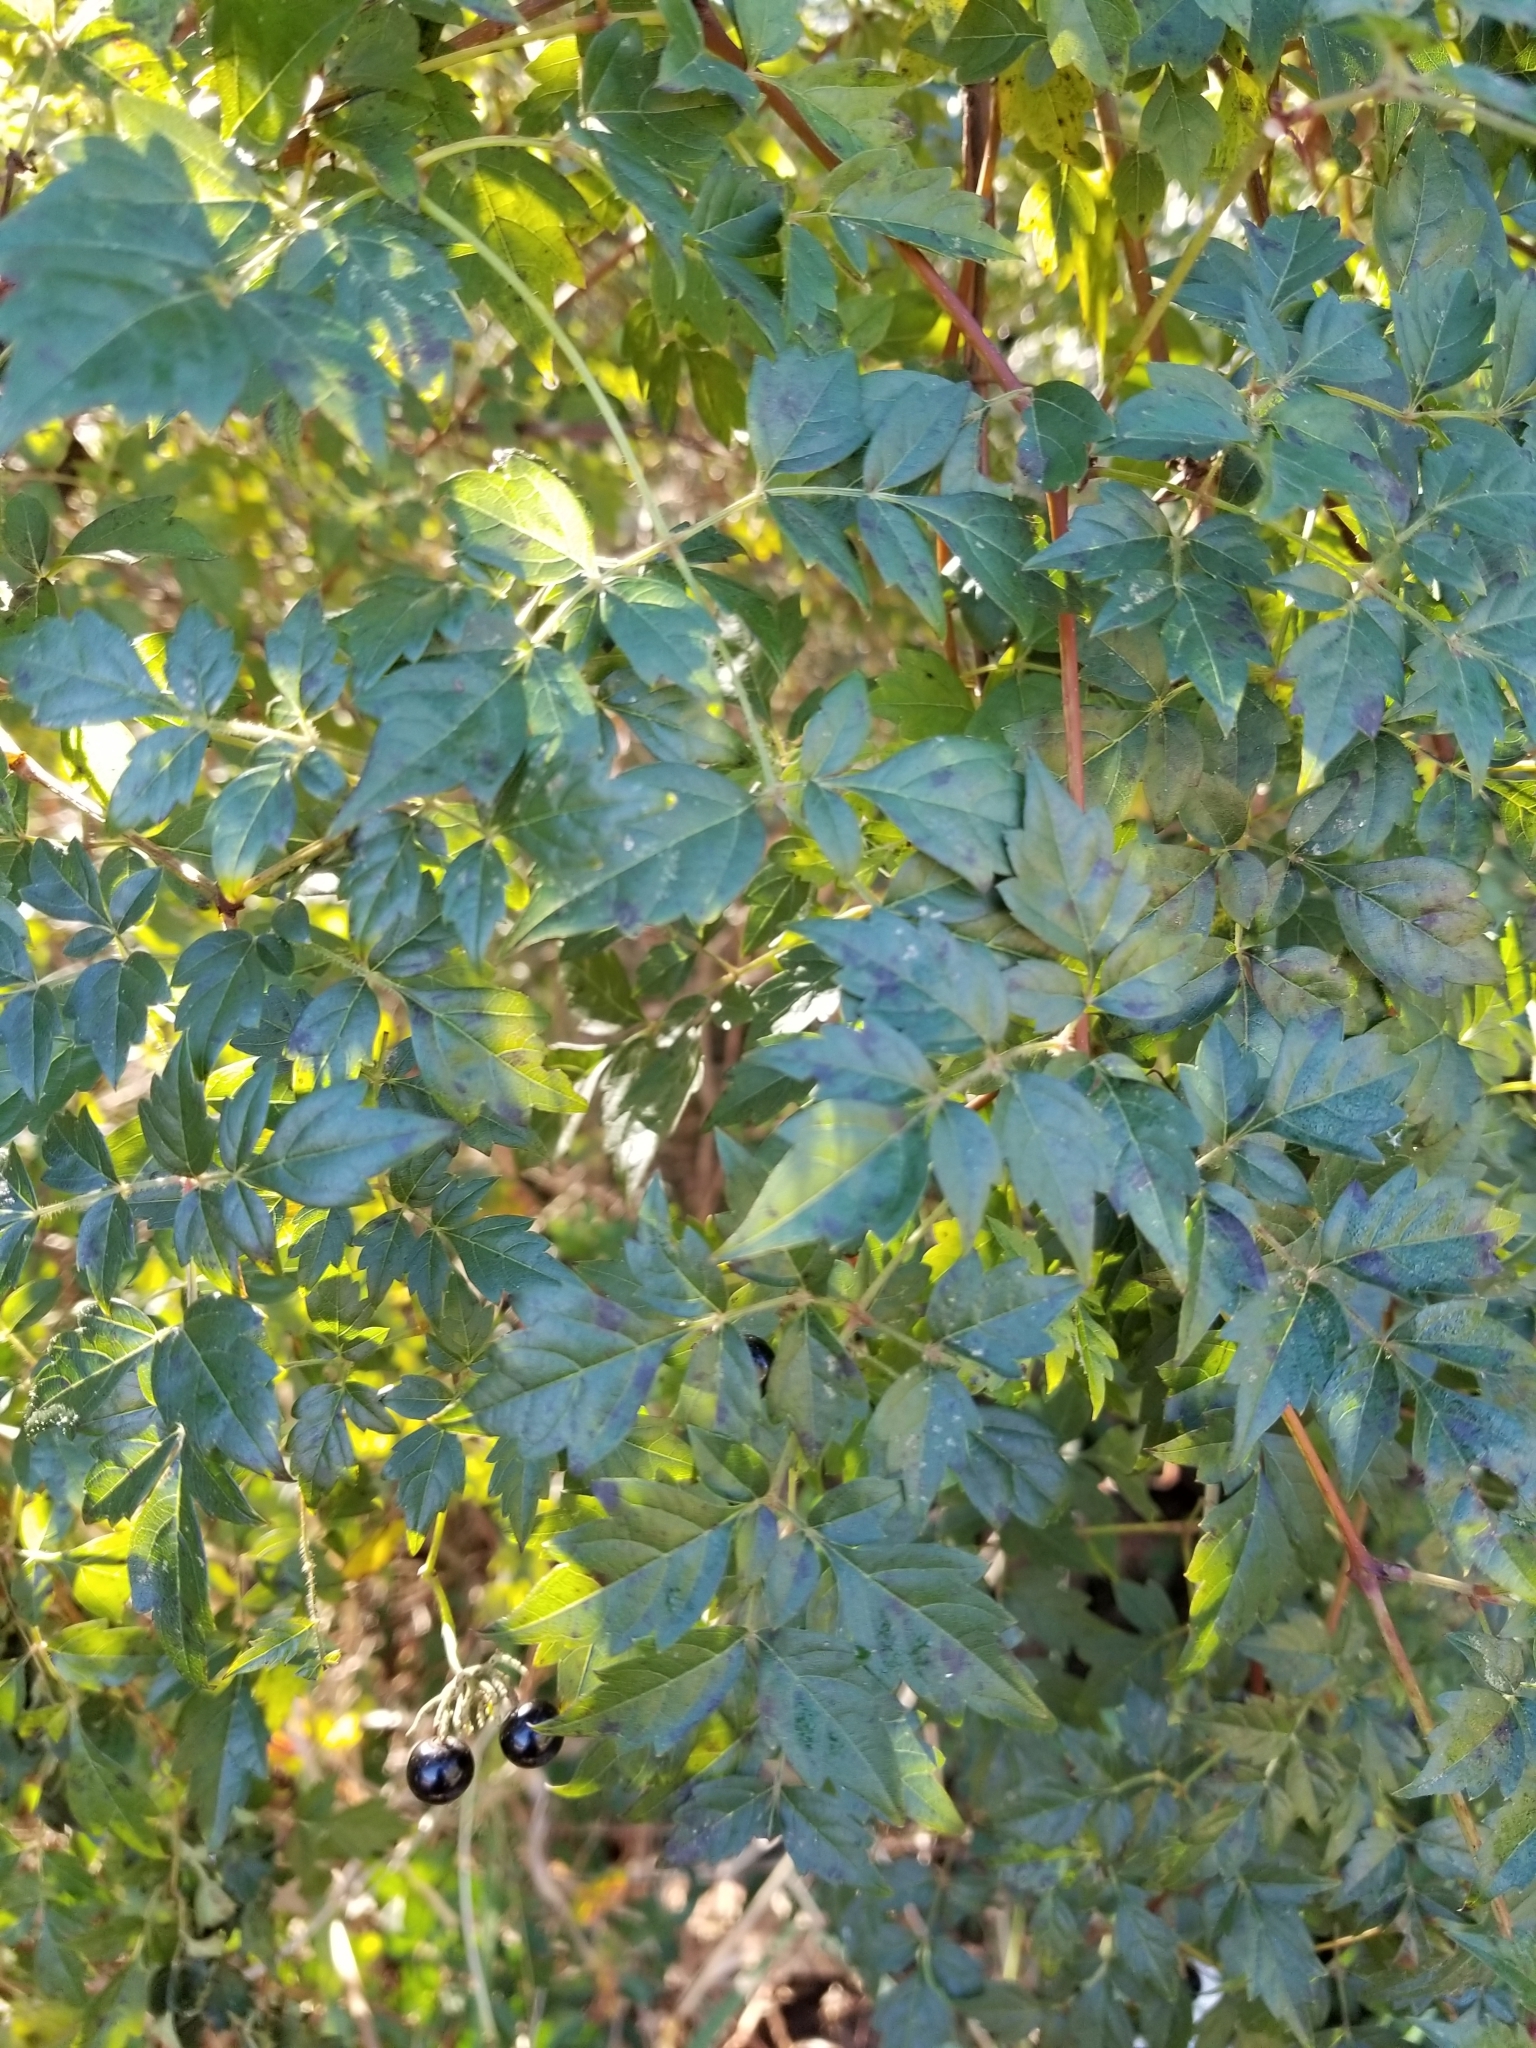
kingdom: Plantae
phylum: Tracheophyta
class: Magnoliopsida
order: Vitales
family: Vitaceae
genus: Nekemias
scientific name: Nekemias arborea
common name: Peppervine
